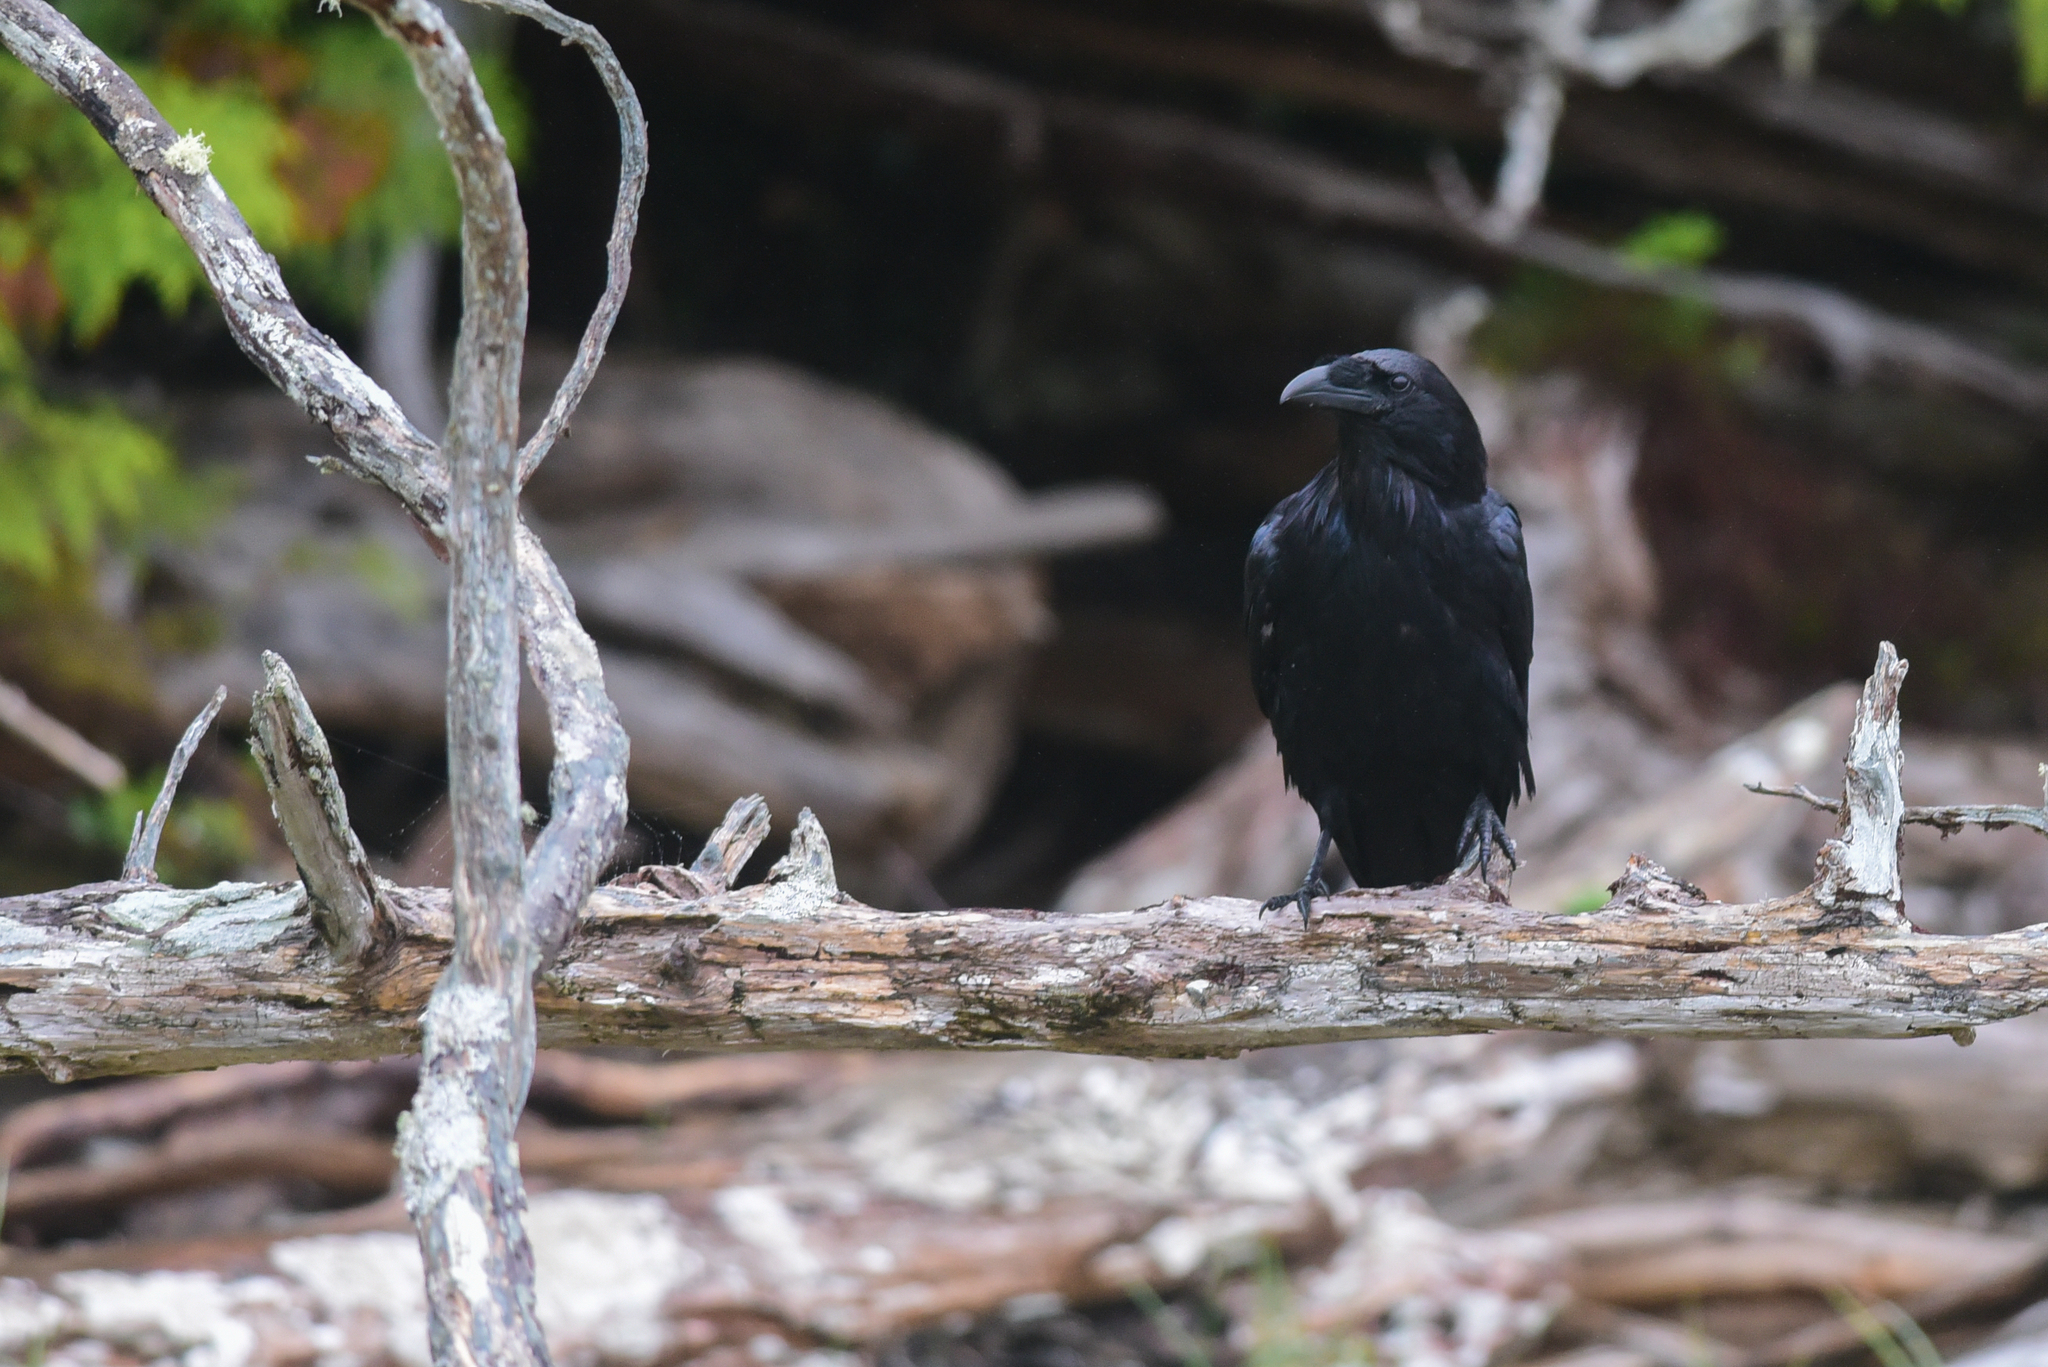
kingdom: Animalia
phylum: Chordata
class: Aves
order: Passeriformes
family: Corvidae
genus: Corvus
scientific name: Corvus corax
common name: Common raven
